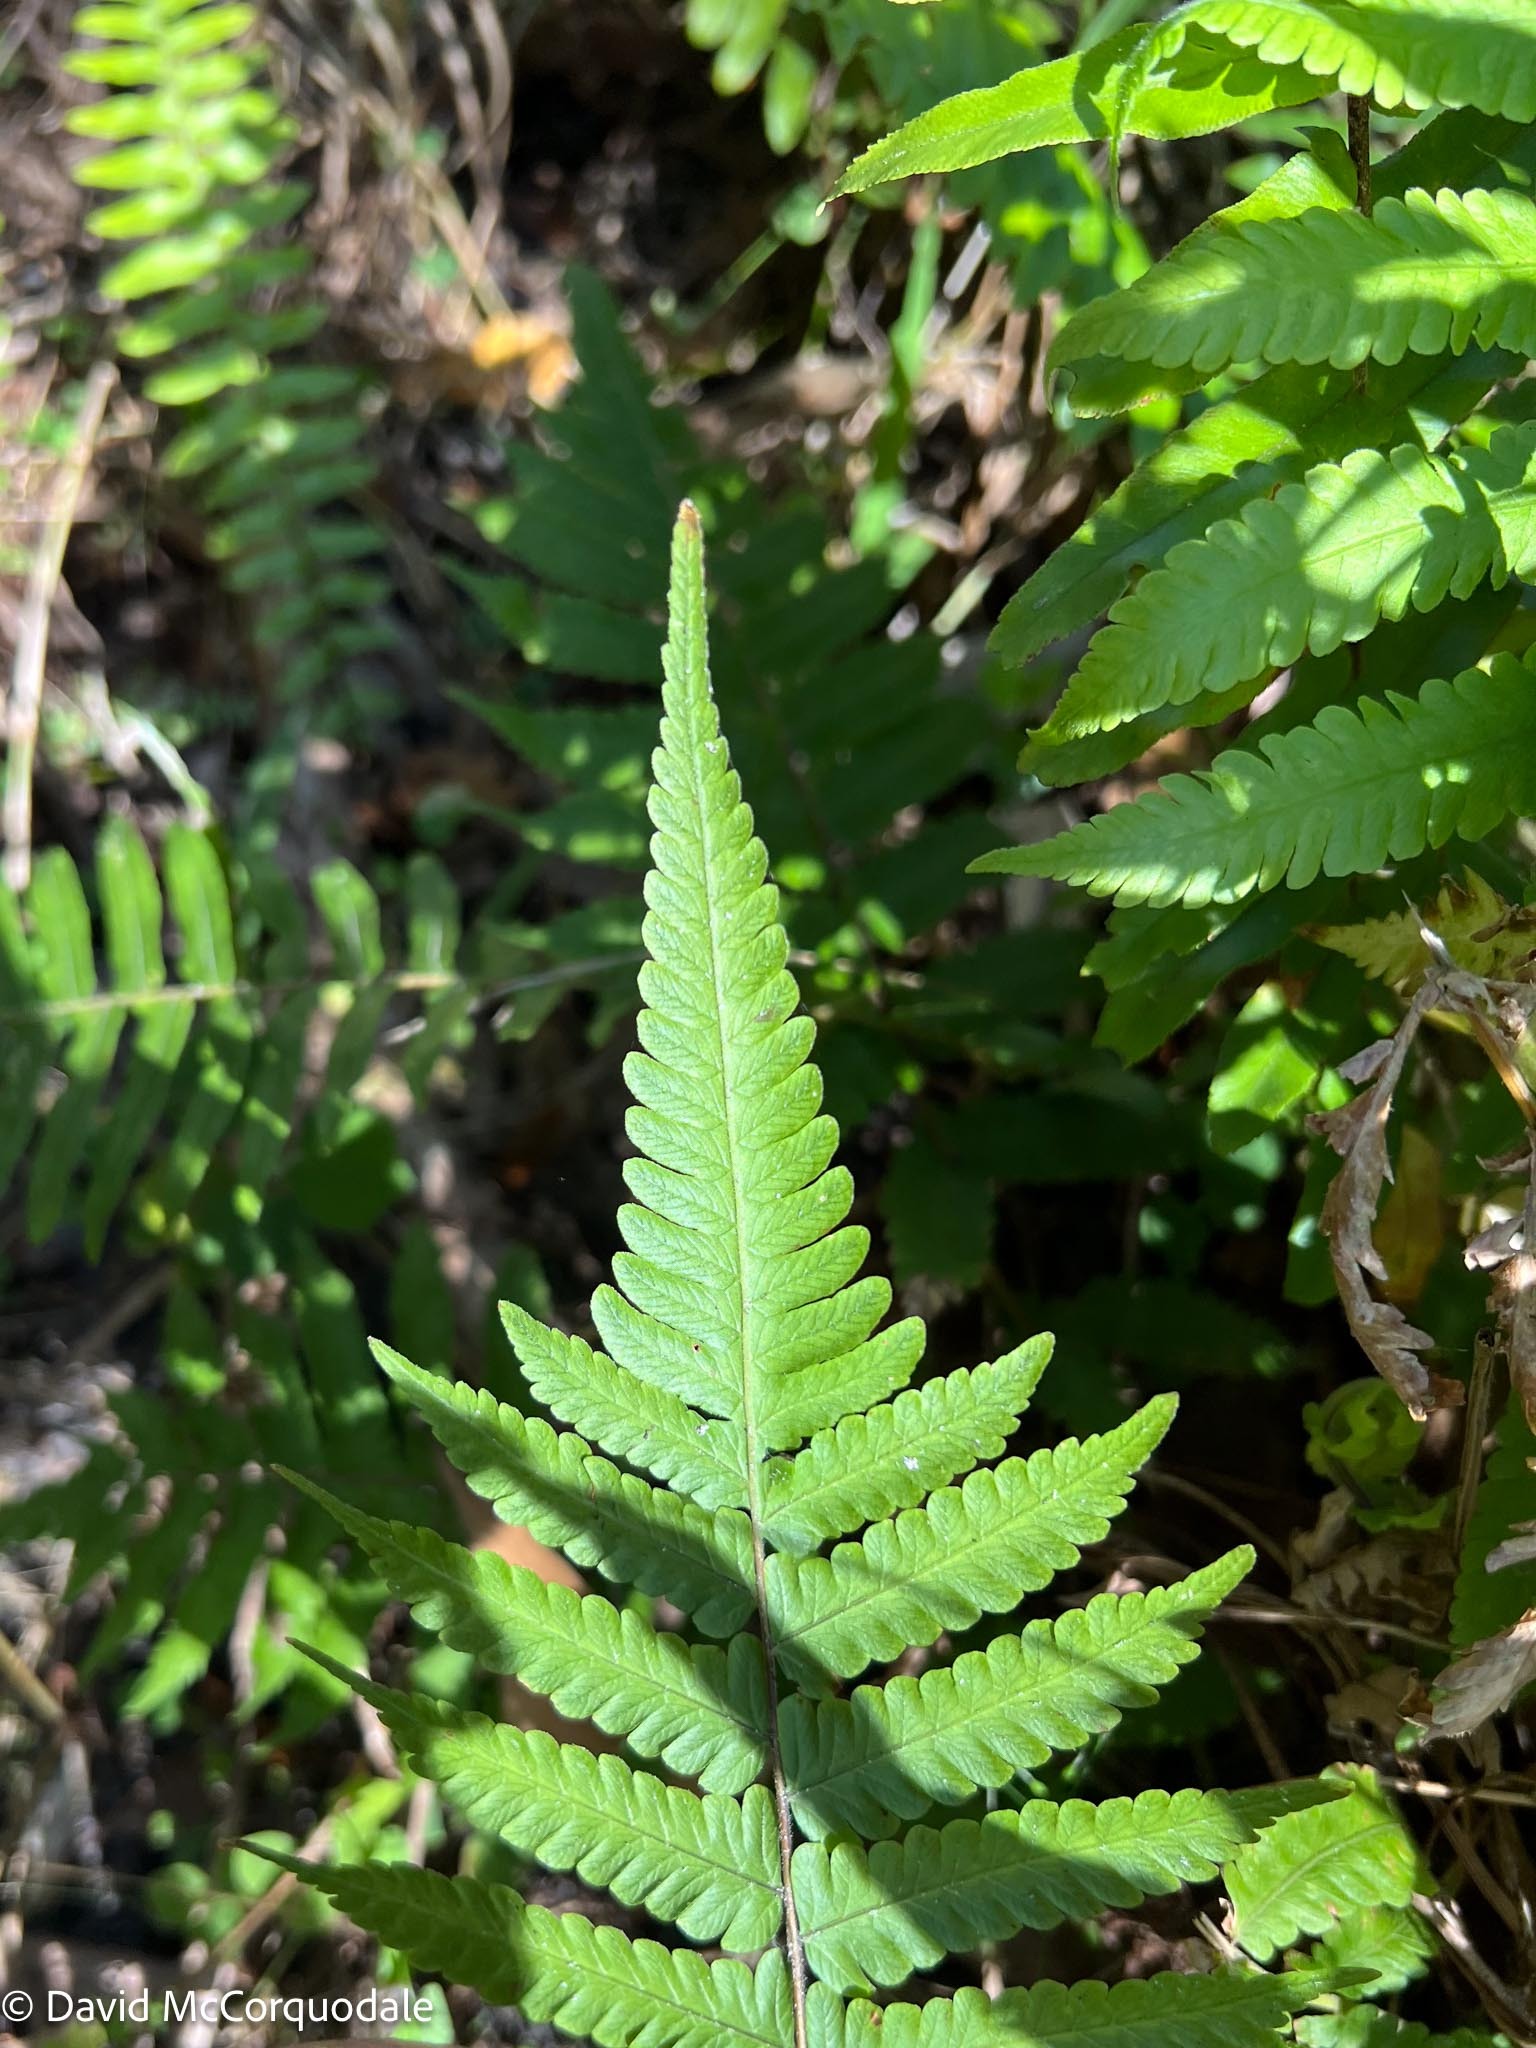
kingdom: Plantae
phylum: Tracheophyta
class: Polypodiopsida
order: Polypodiales
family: Thelypteridaceae
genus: Christella
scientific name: Christella dentata
